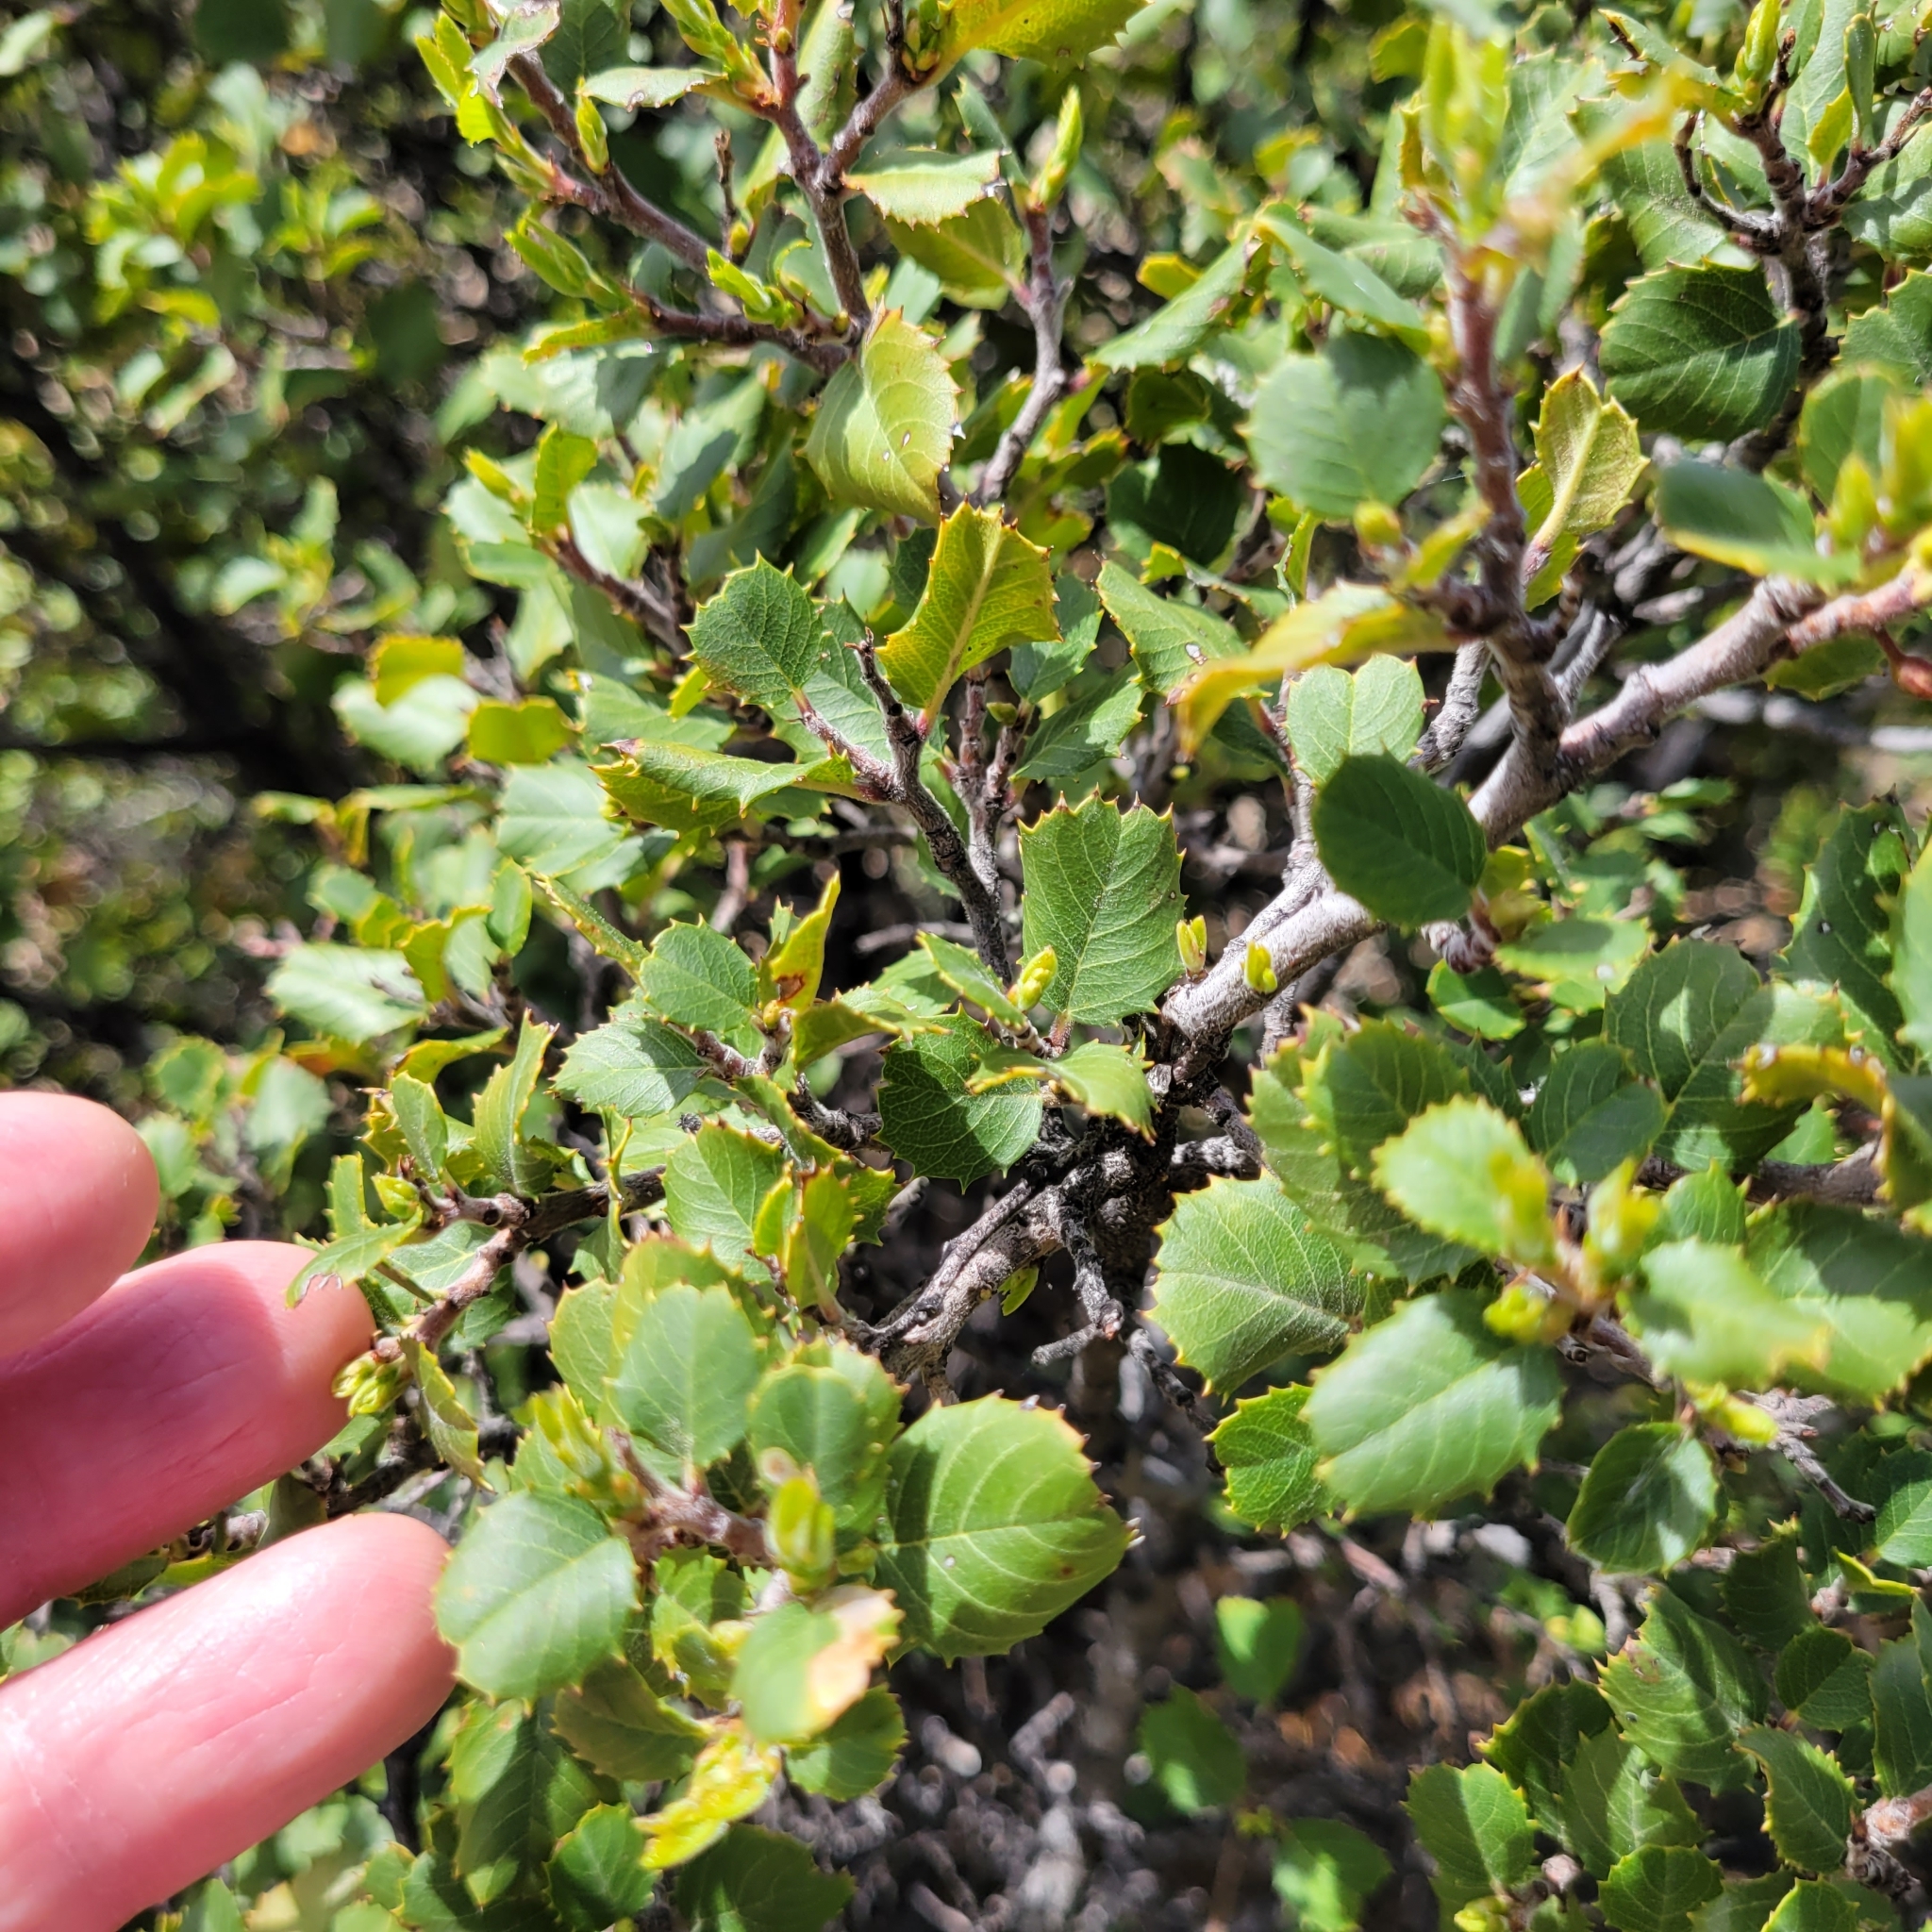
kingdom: Plantae
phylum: Tracheophyta
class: Magnoliopsida
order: Rosales
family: Rhamnaceae
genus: Endotropis
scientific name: Endotropis crocea
